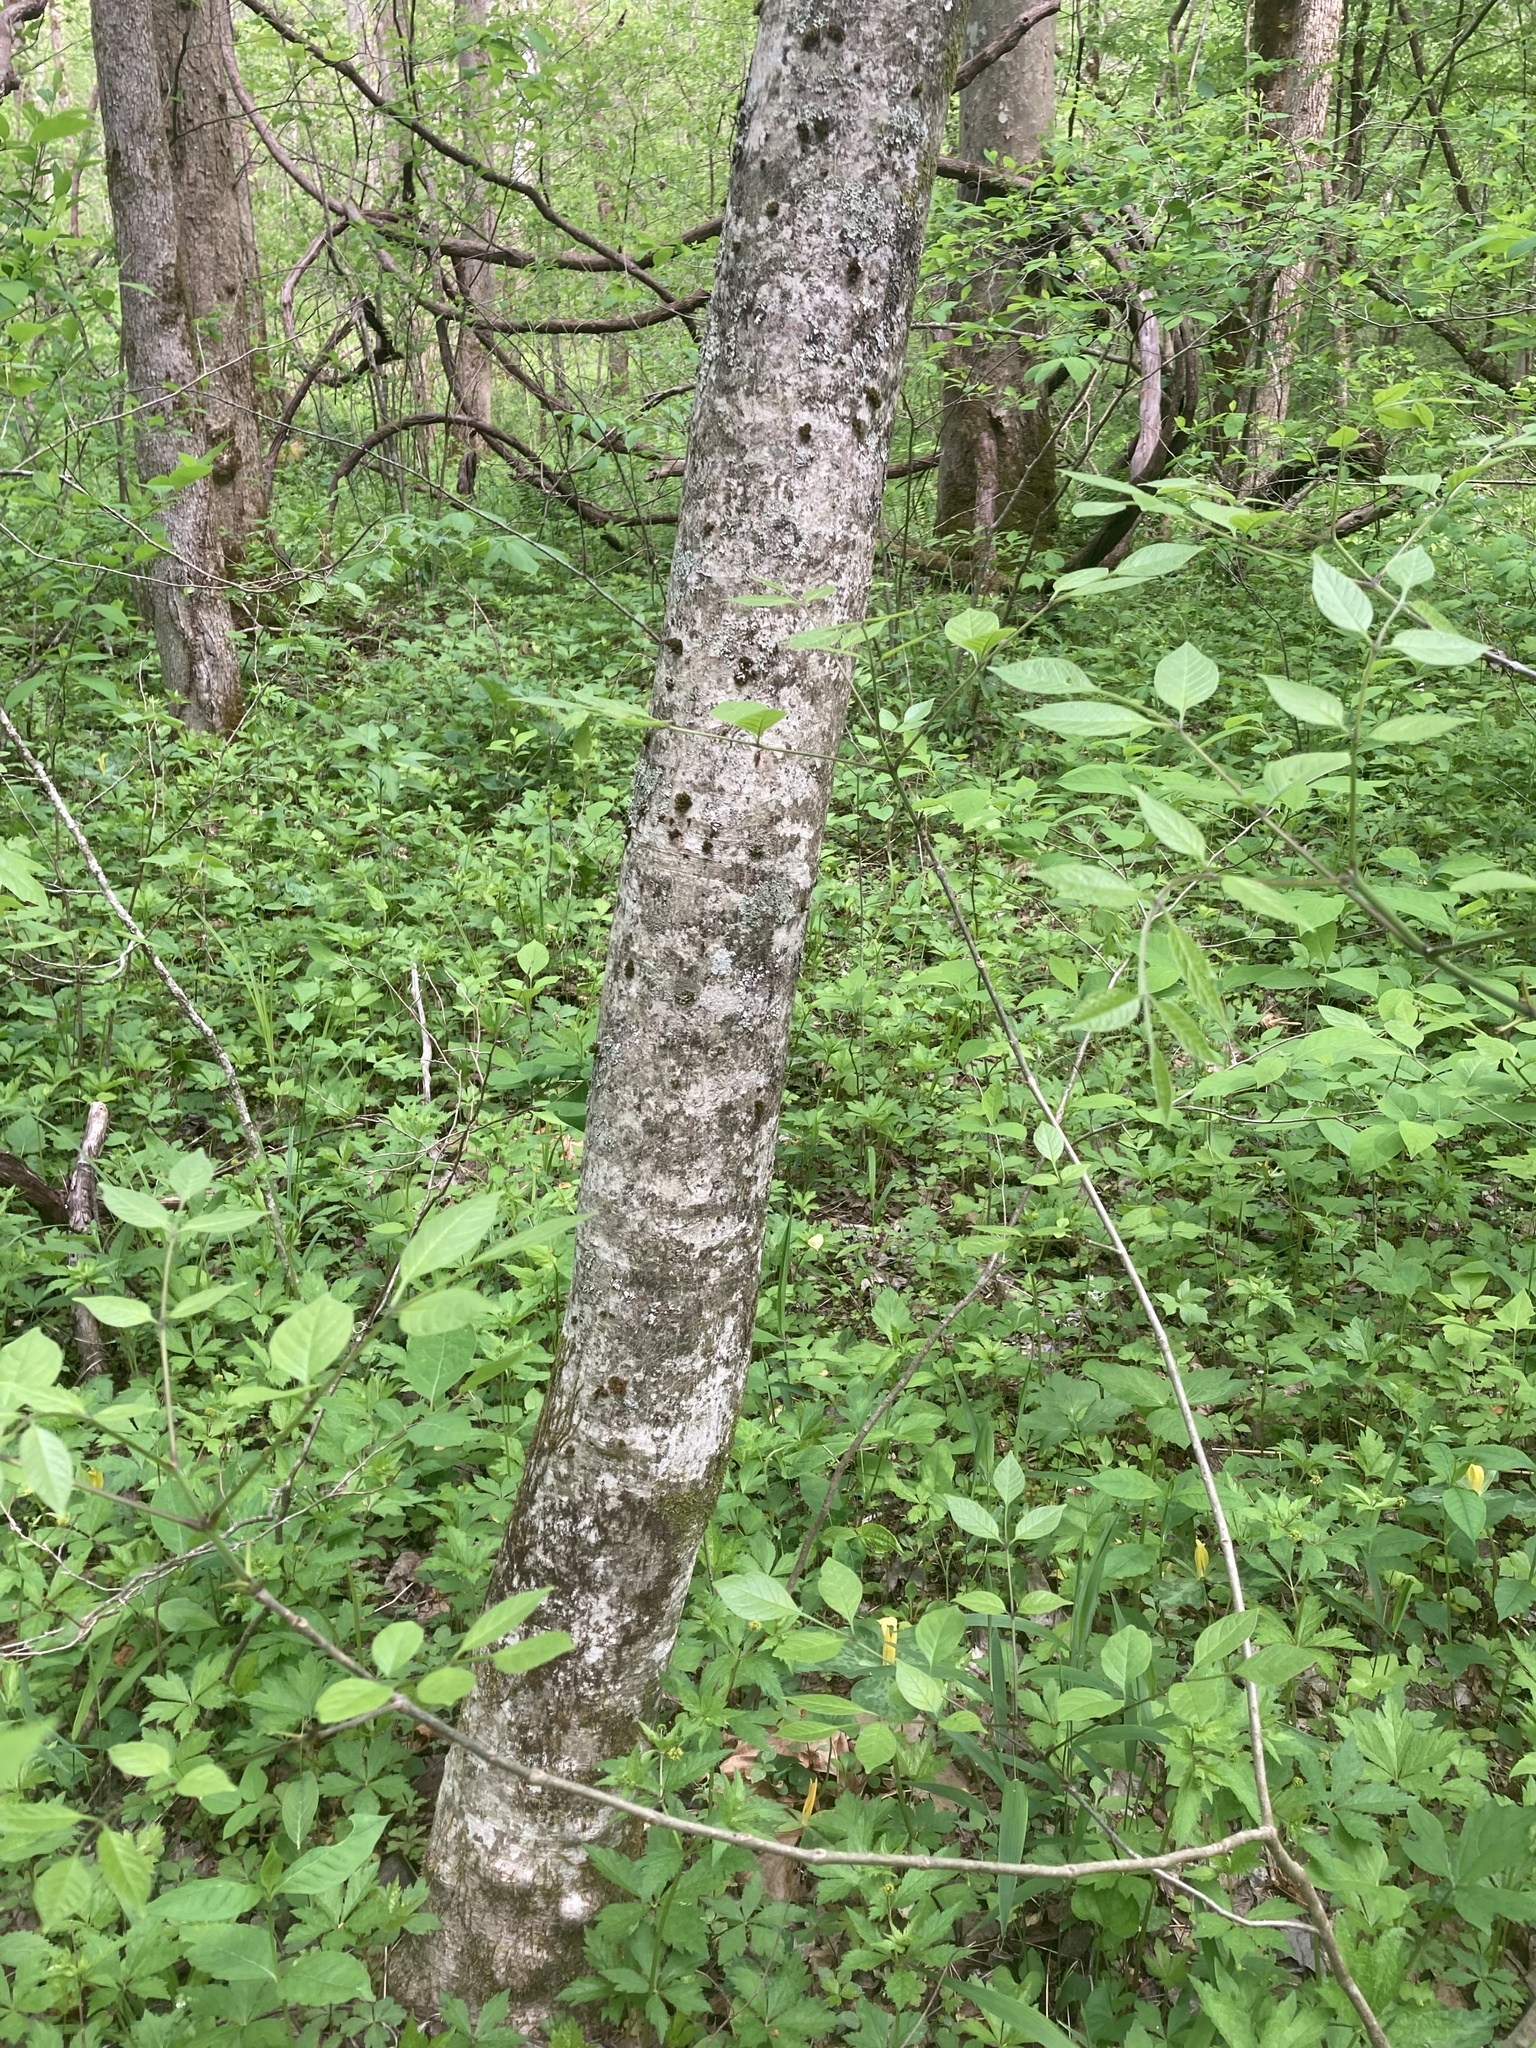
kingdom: Plantae
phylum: Tracheophyta
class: Magnoliopsida
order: Magnoliales
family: Magnoliaceae
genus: Magnolia
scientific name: Magnolia tripetala
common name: Umbrella magnolia
